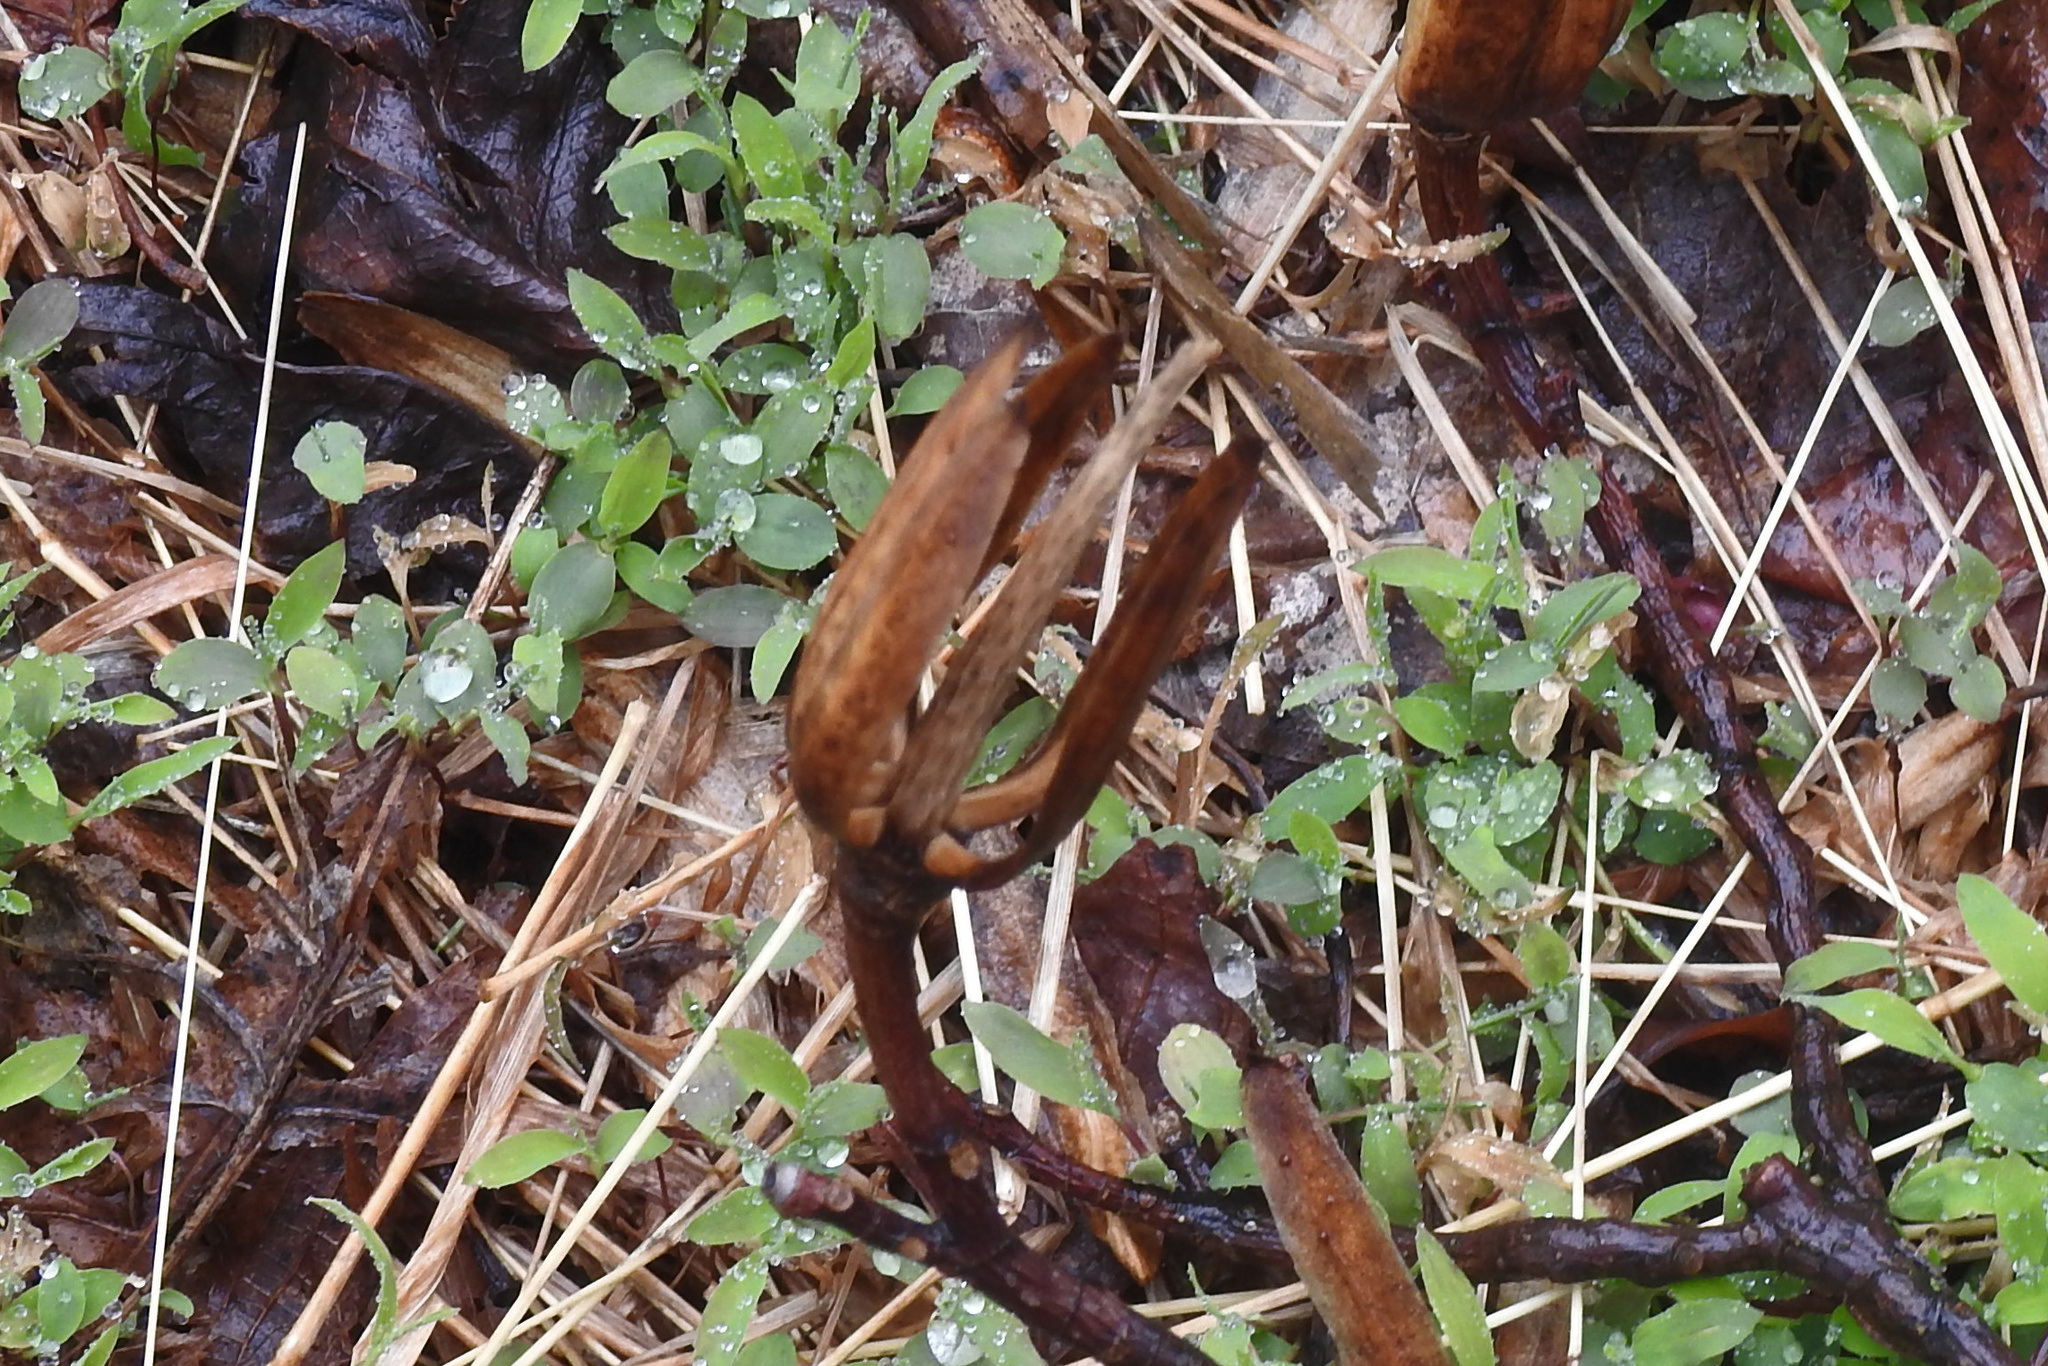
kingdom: Plantae
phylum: Tracheophyta
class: Magnoliopsida
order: Magnoliales
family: Magnoliaceae
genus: Liriodendron
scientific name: Liriodendron tulipifera
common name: Tulip tree
